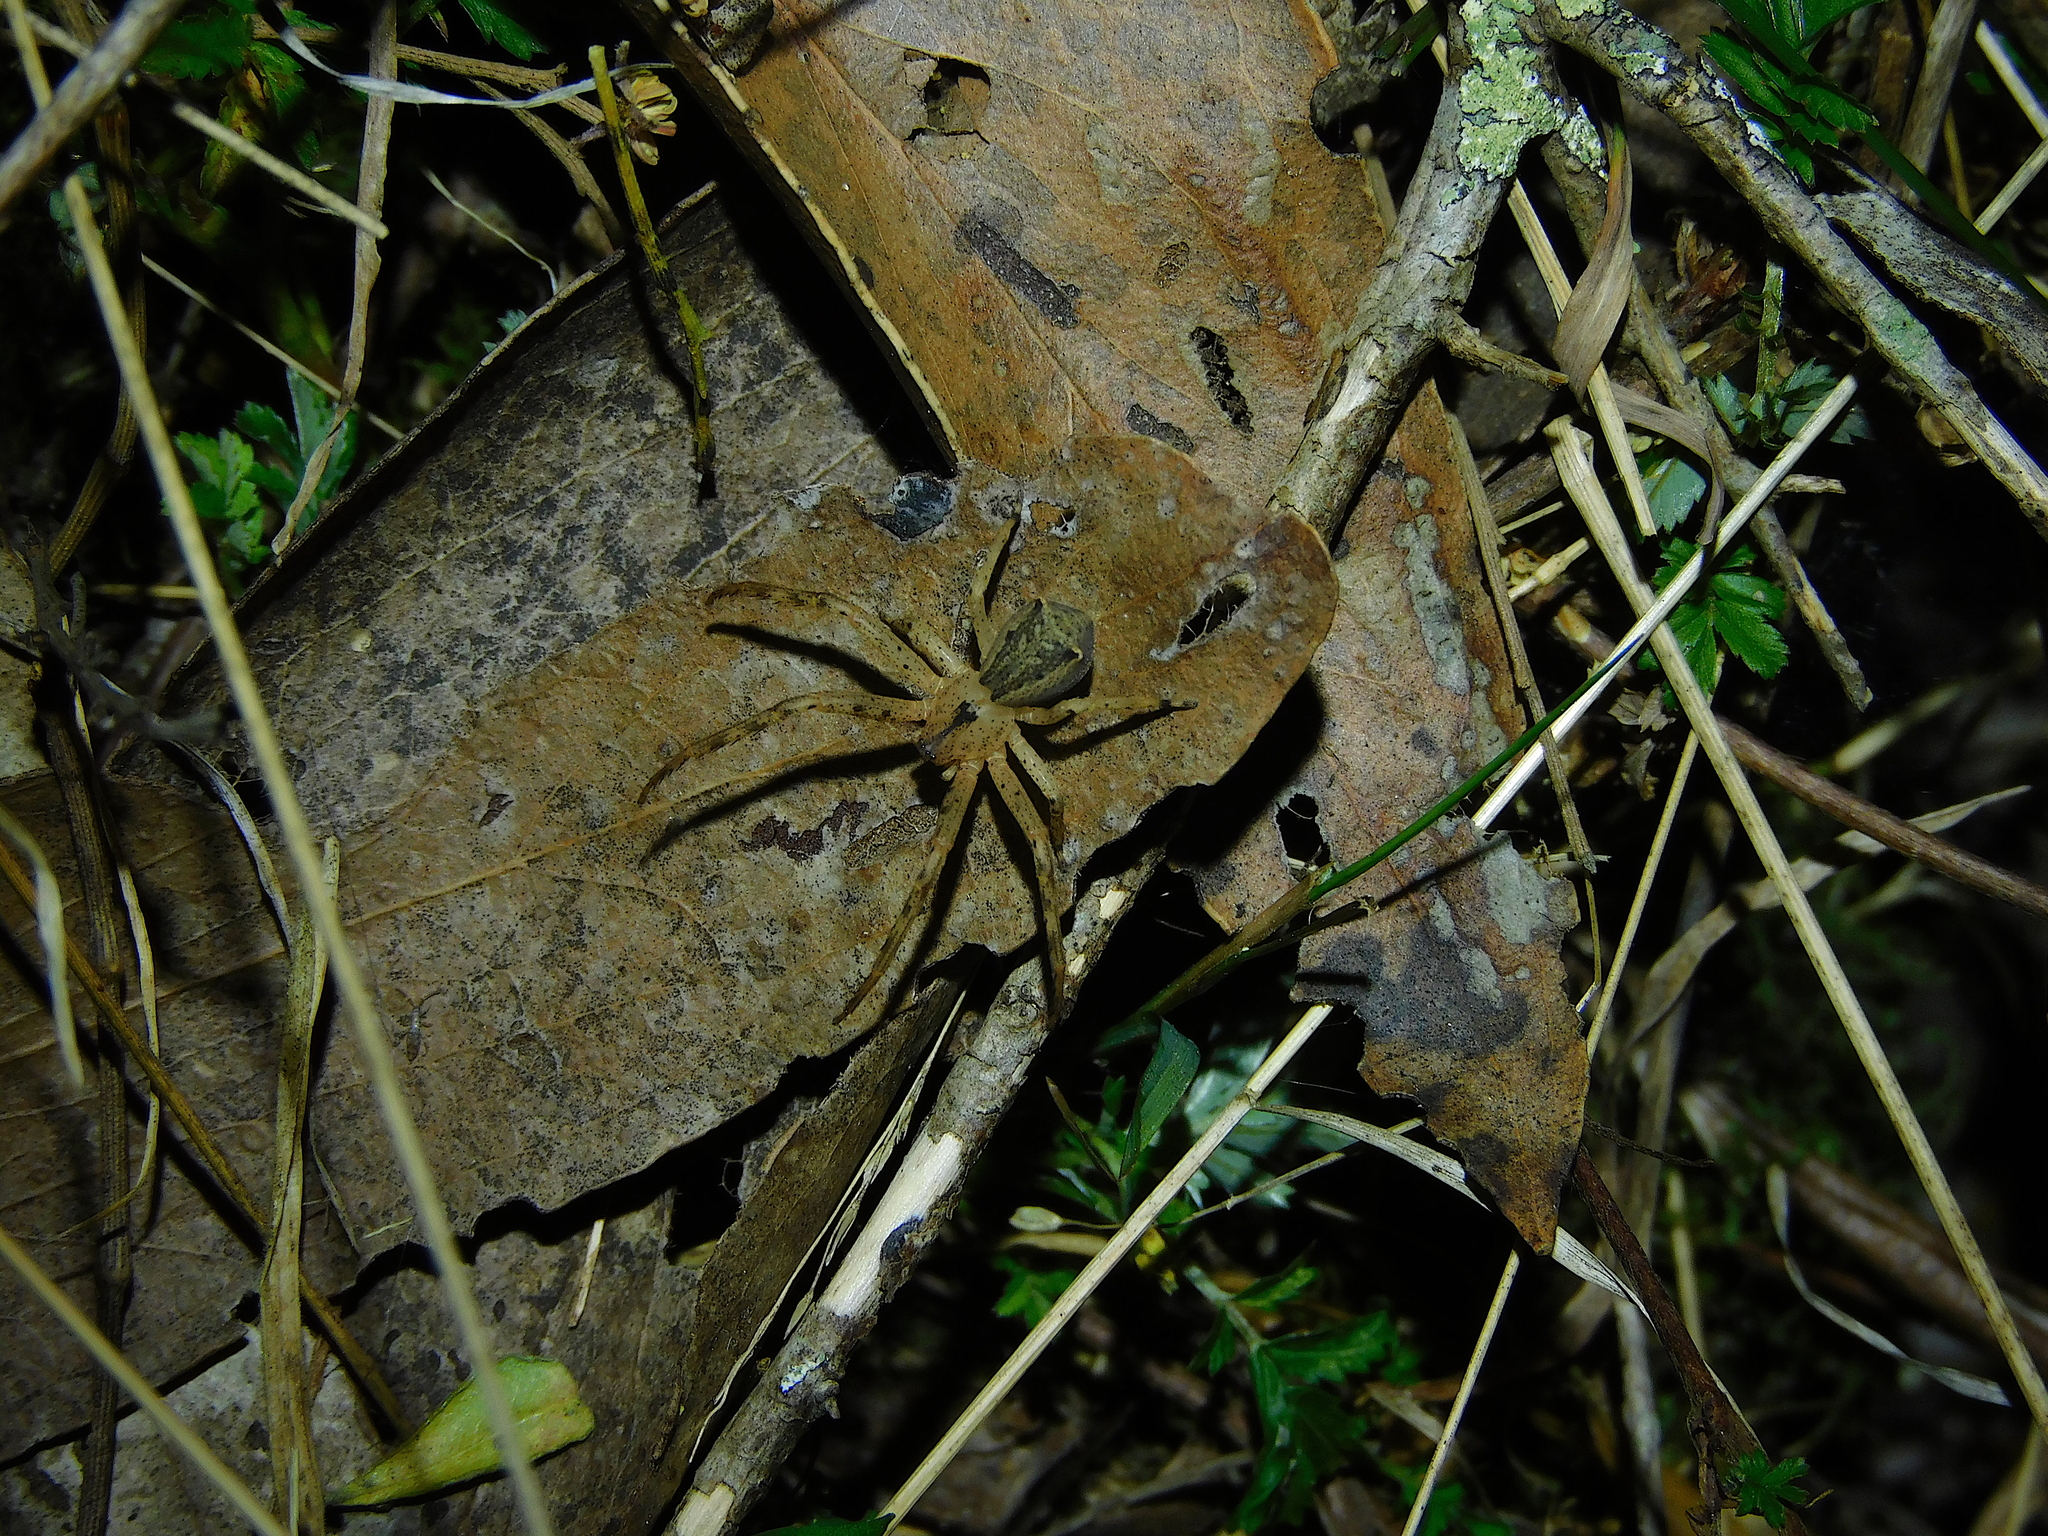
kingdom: Animalia
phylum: Arthropoda
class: Arachnida
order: Araneae
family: Thomisidae
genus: Sidymella
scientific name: Sidymella trapezia
